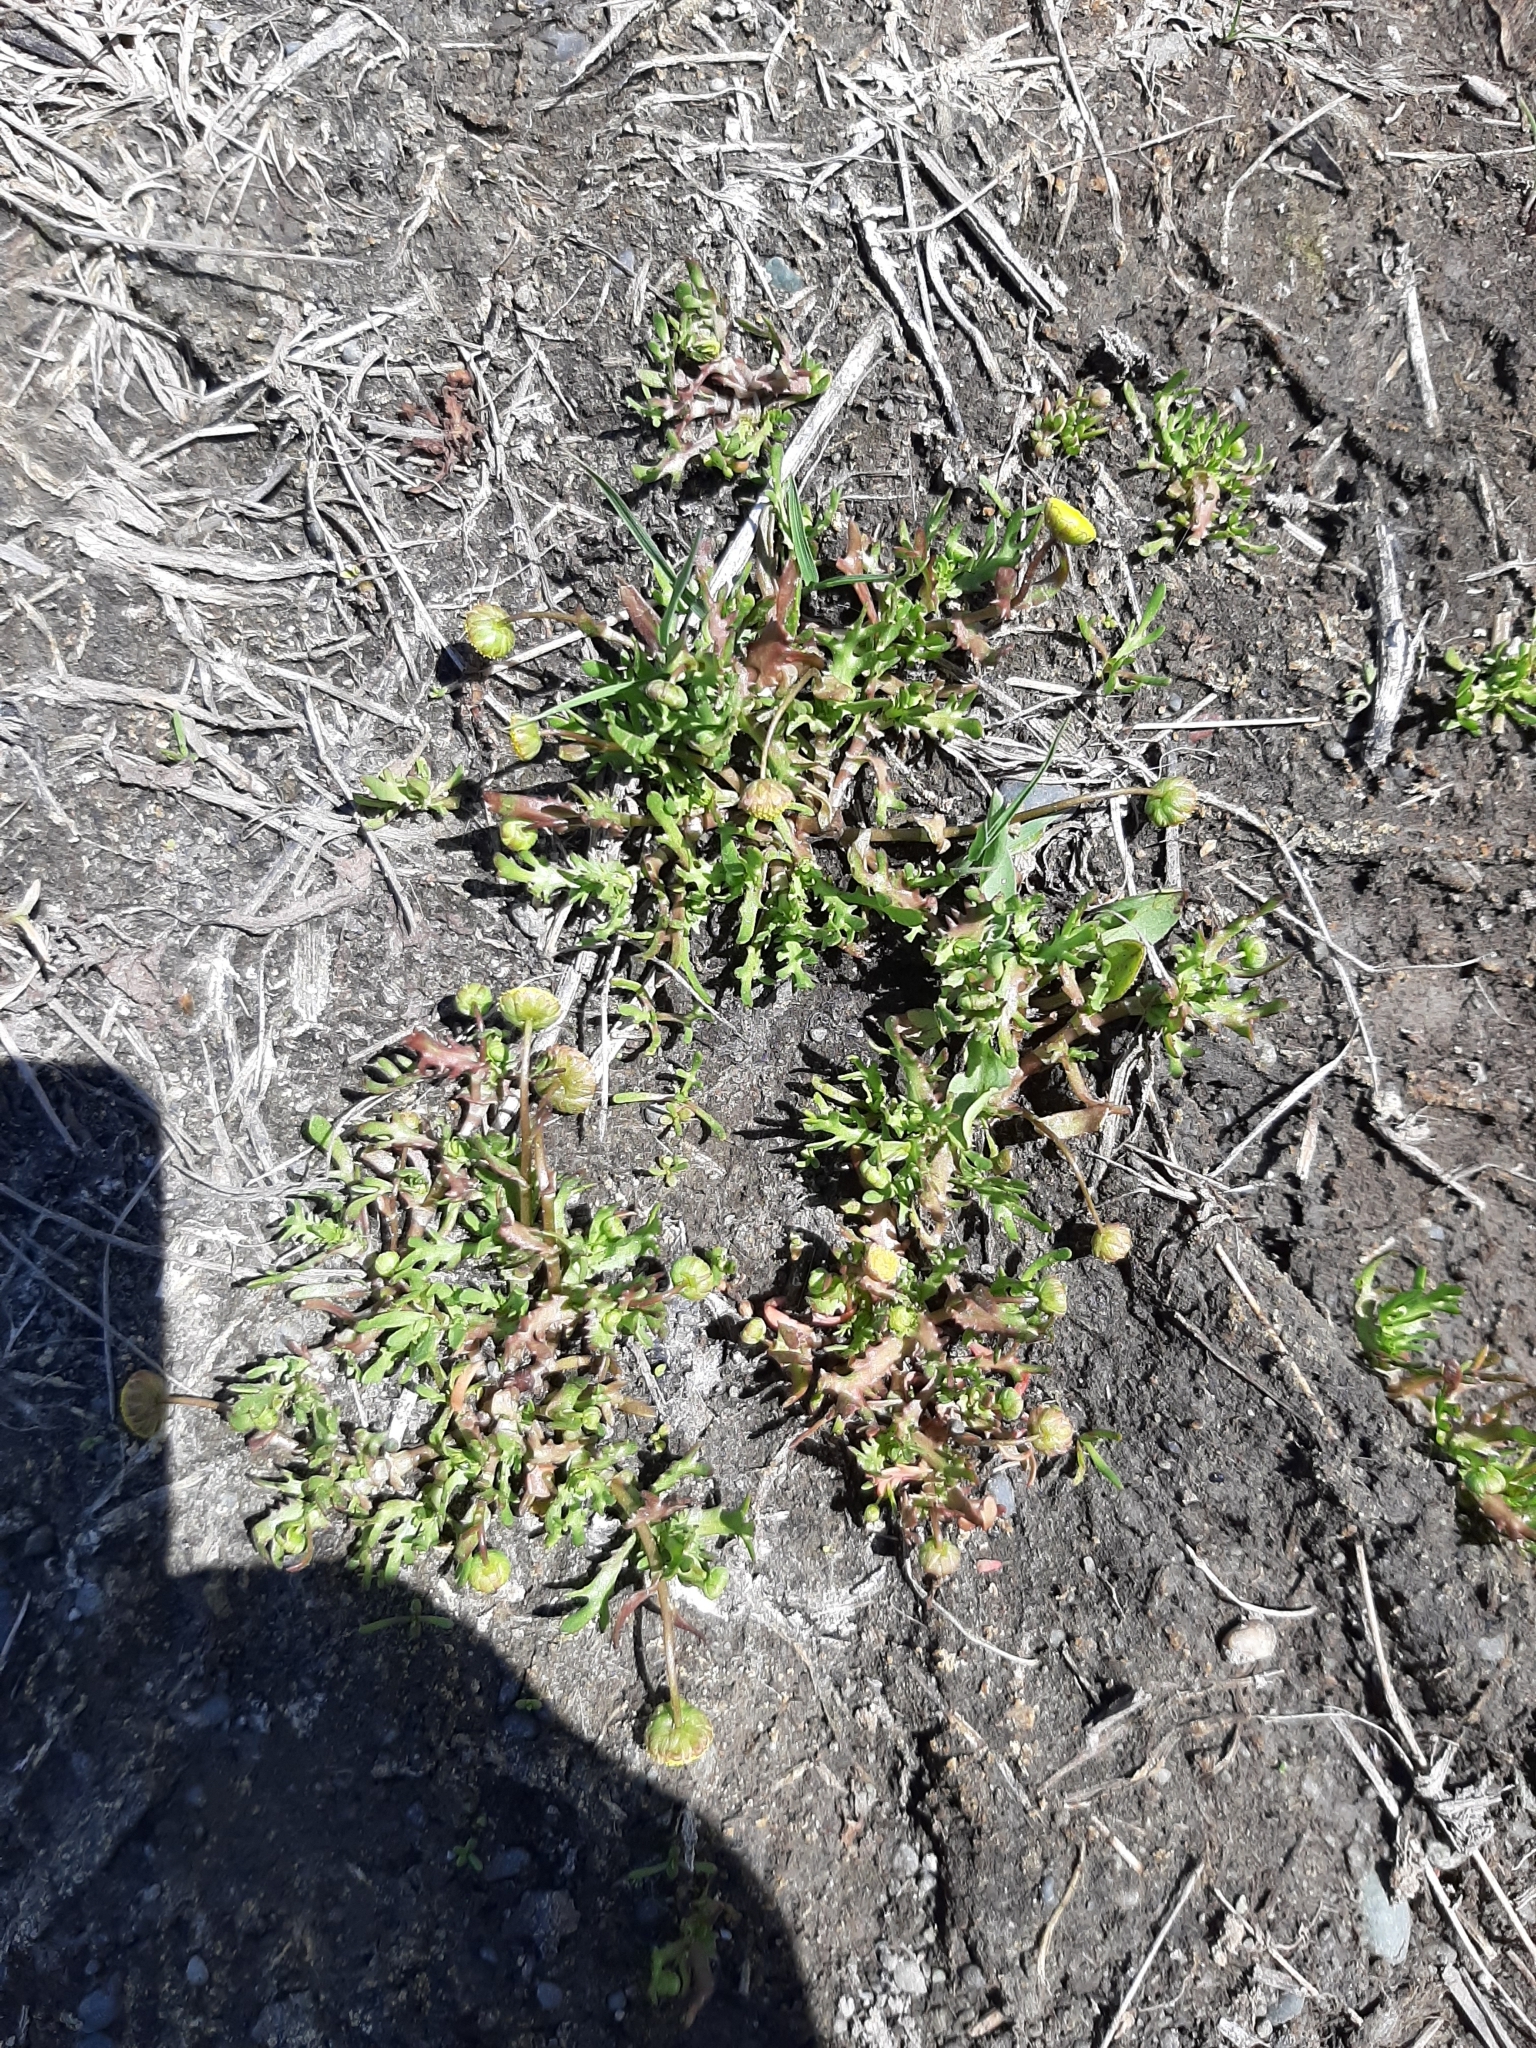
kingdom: Plantae
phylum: Tracheophyta
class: Magnoliopsida
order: Asterales
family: Asteraceae
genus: Cotula
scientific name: Cotula coronopifolia
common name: Buttonweed
